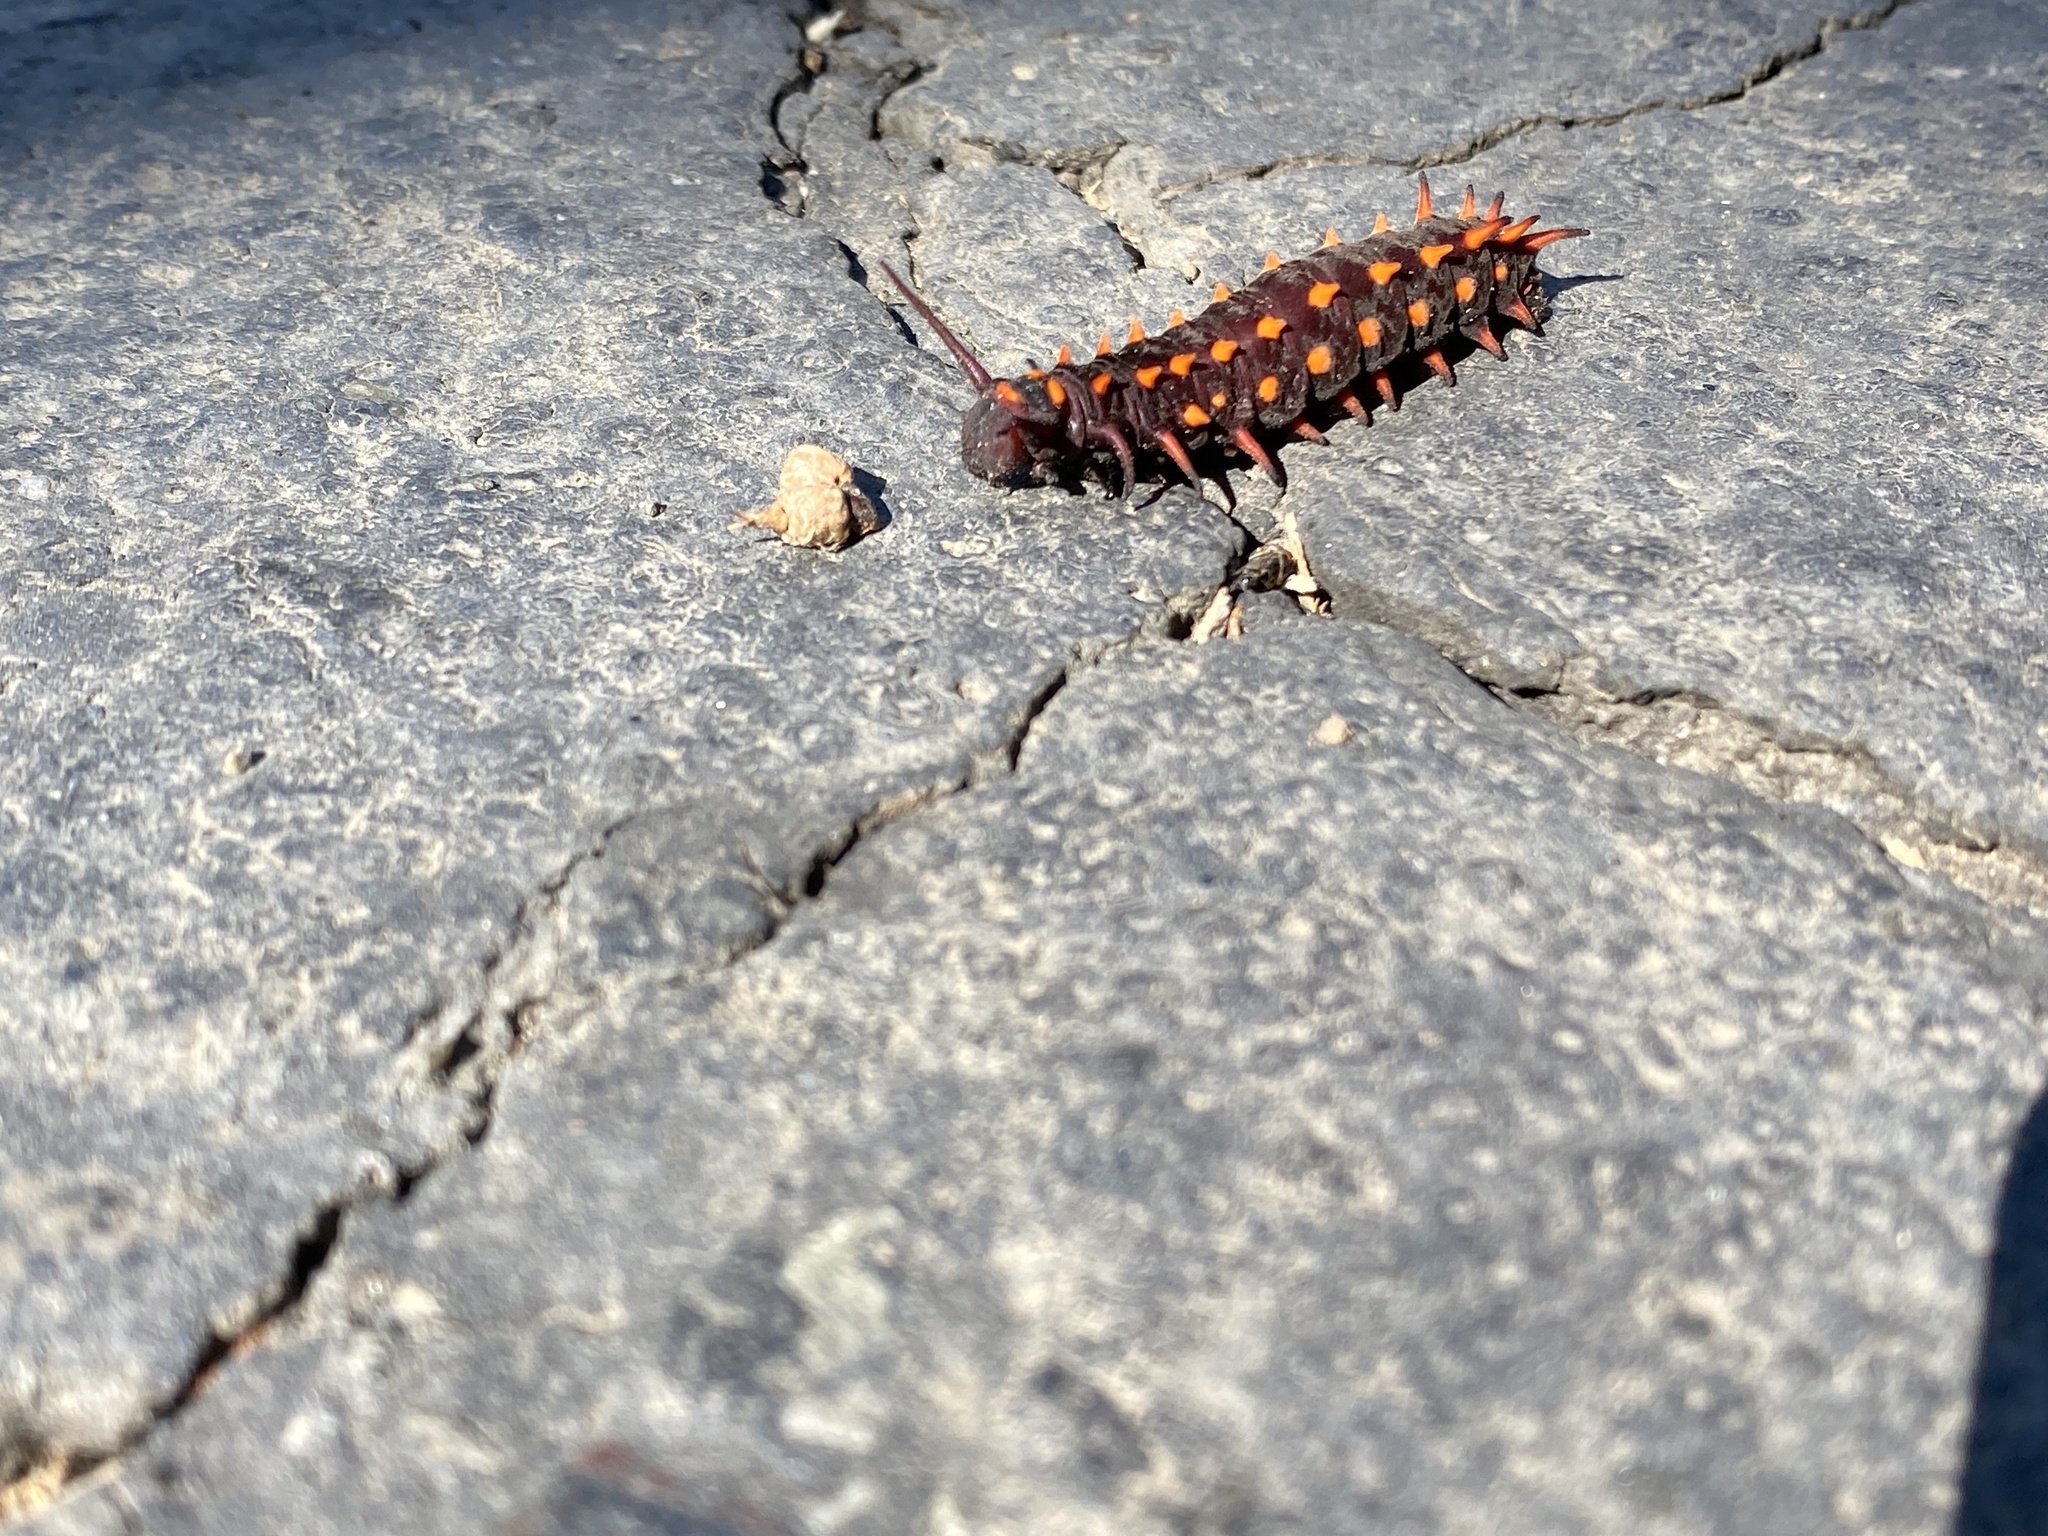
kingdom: Animalia
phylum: Arthropoda
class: Insecta
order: Lepidoptera
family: Papilionidae
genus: Battus
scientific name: Battus philenor
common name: Pipevine swallowtail
